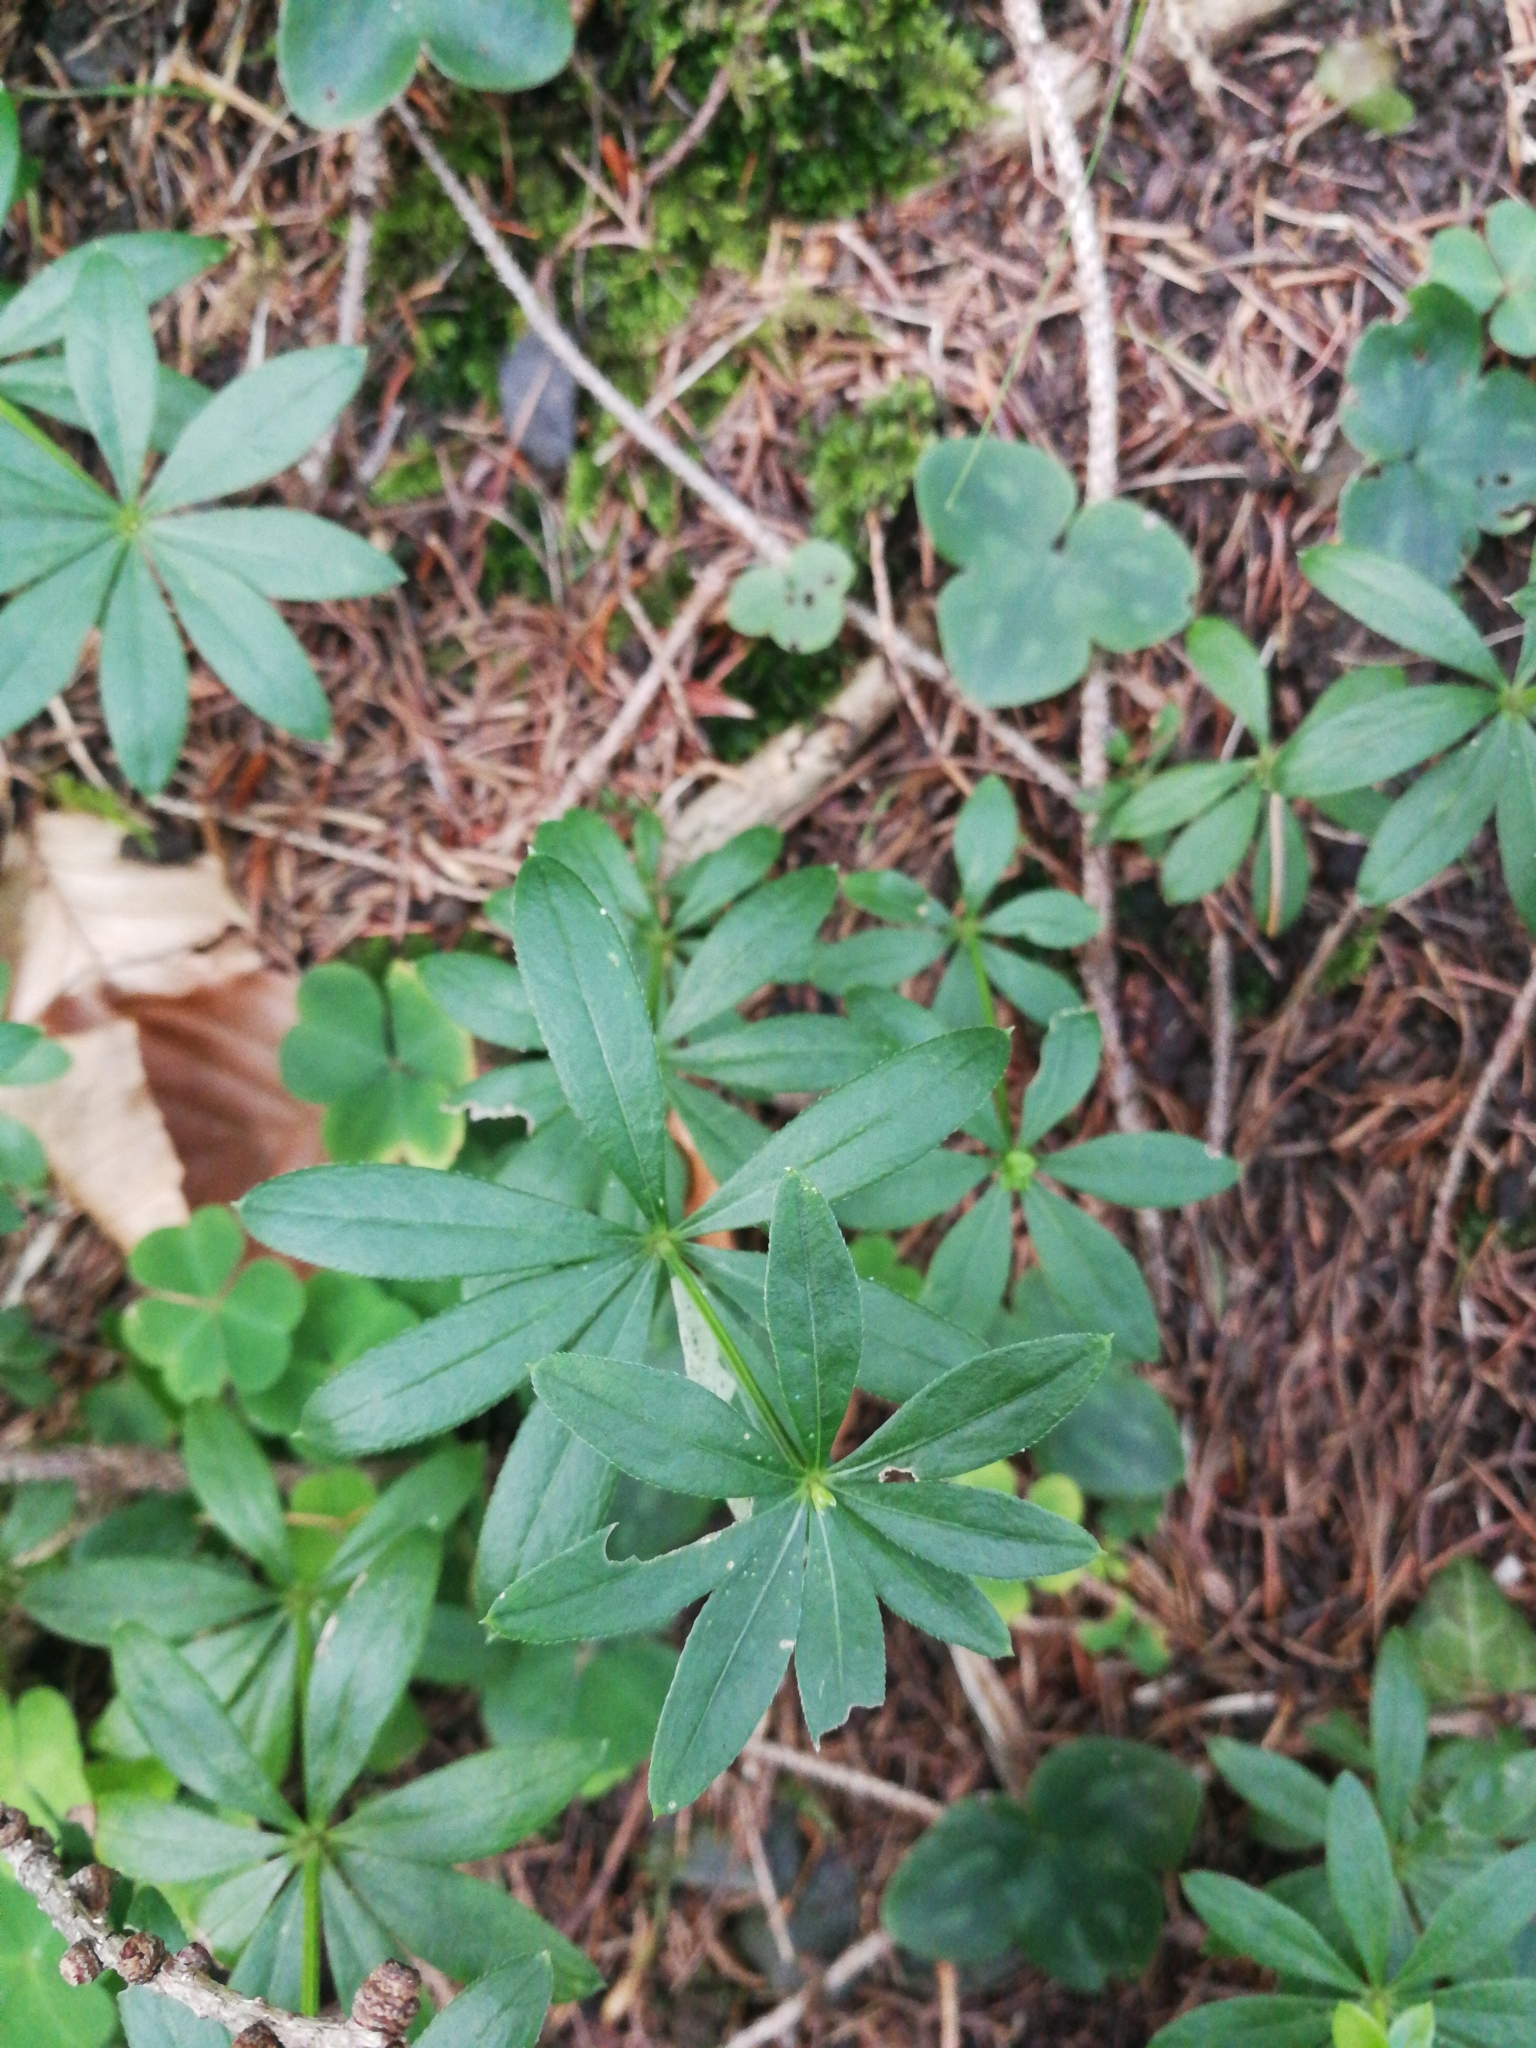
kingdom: Plantae
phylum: Tracheophyta
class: Magnoliopsida
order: Gentianales
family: Rubiaceae
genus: Galium
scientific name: Galium odoratum
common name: Sweet woodruff
